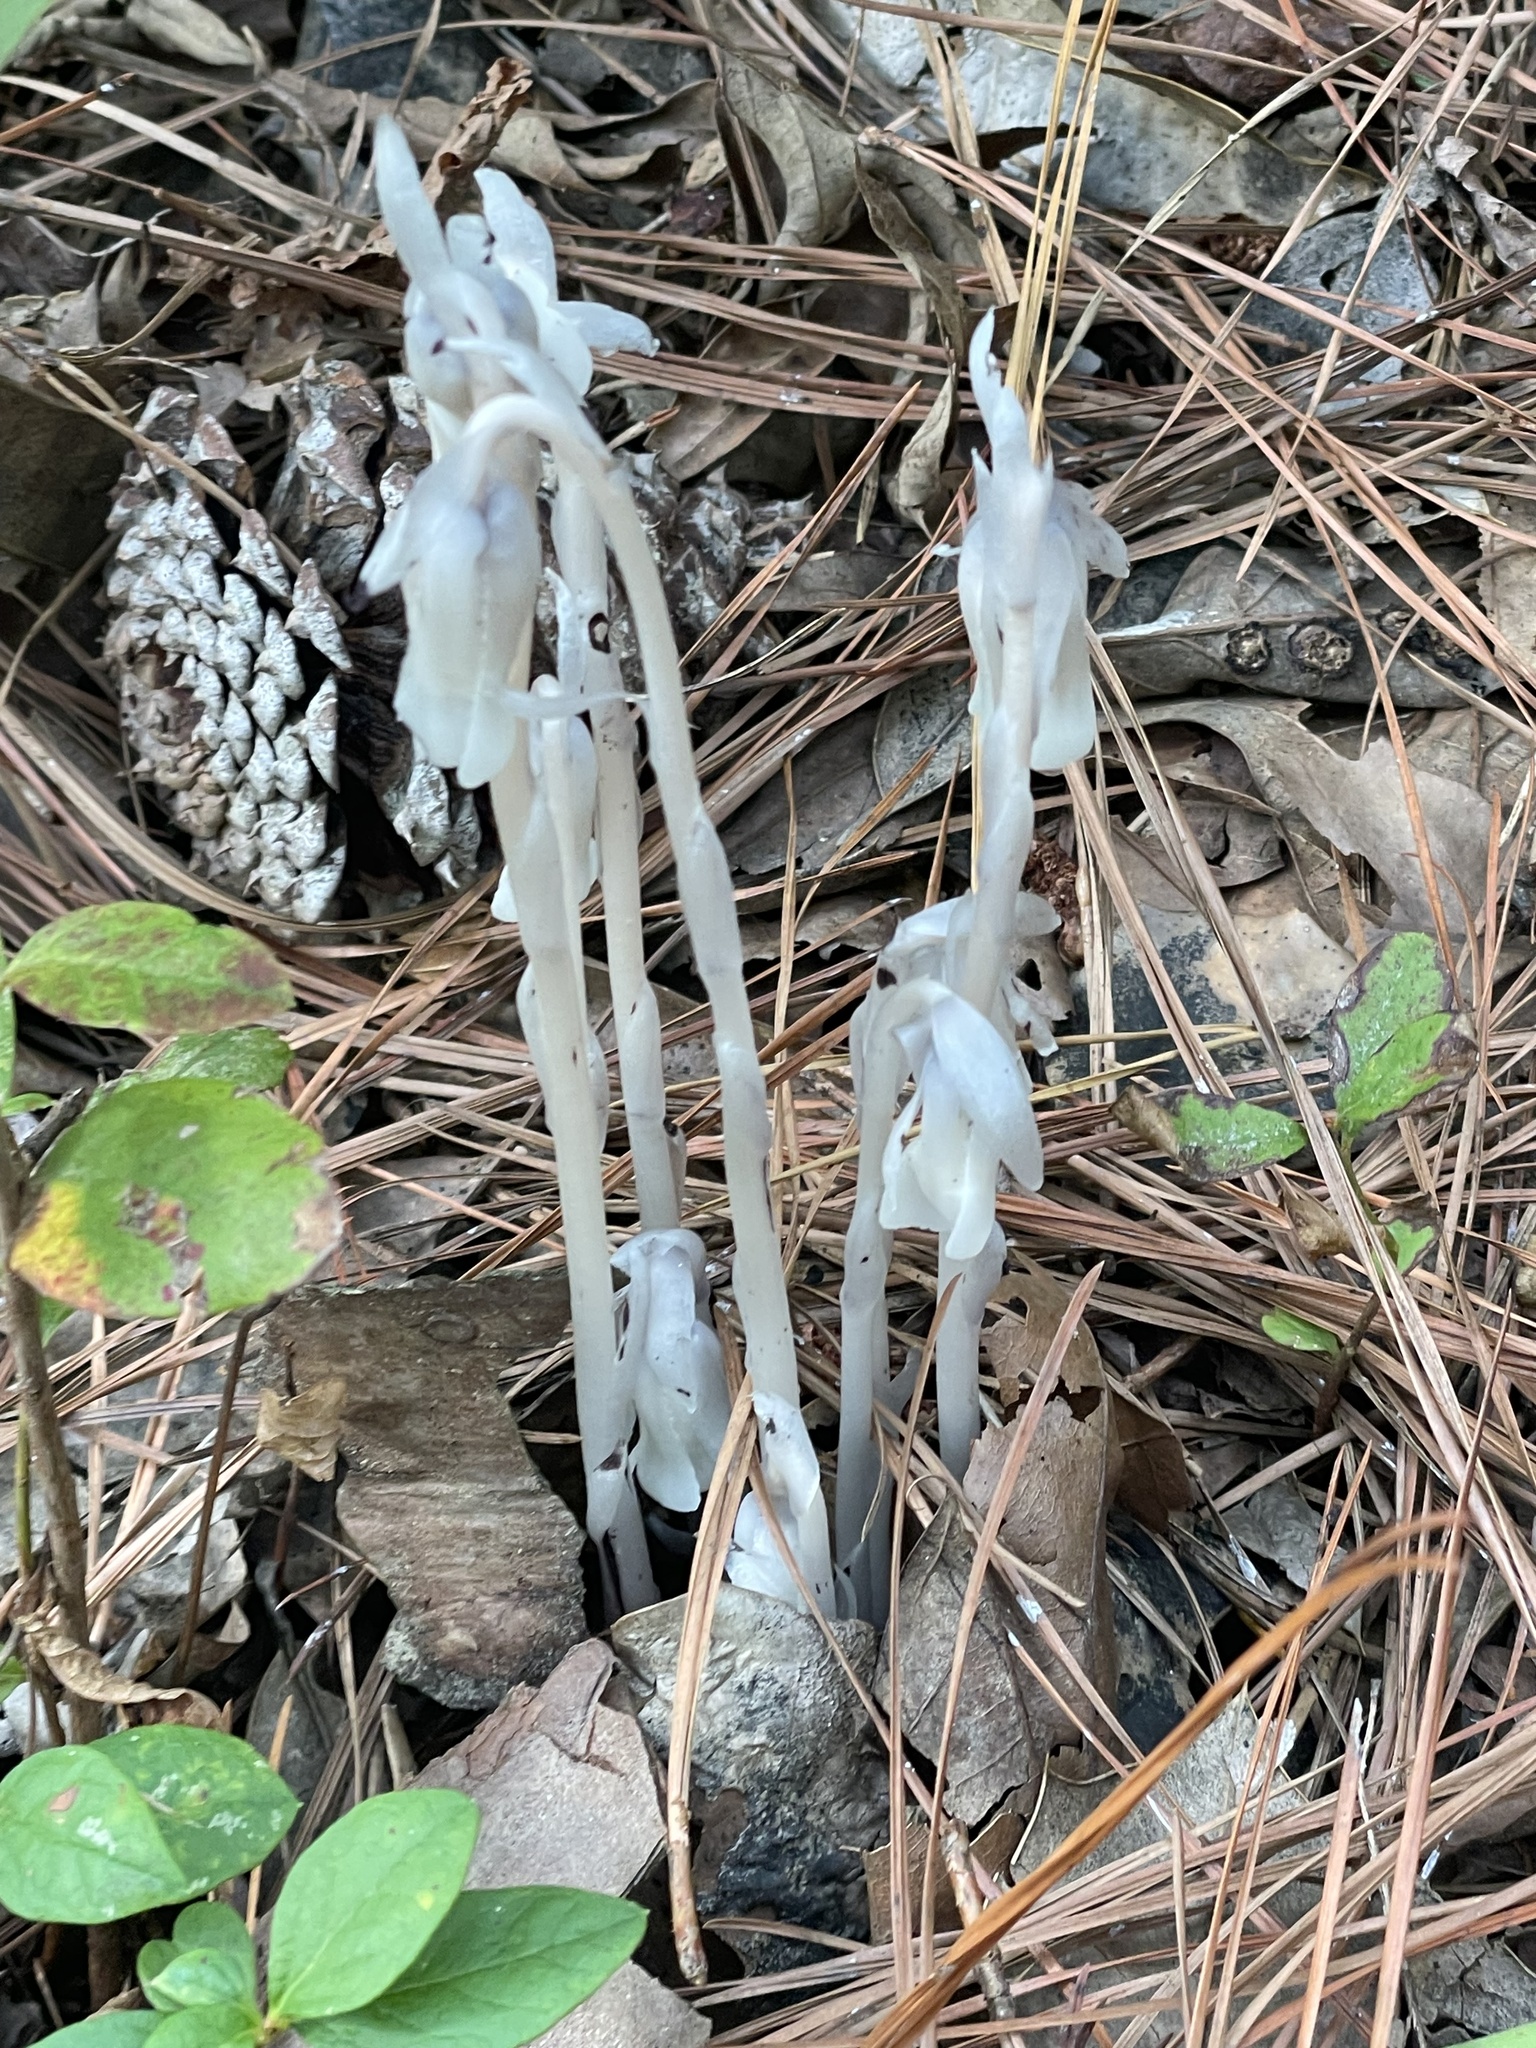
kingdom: Plantae
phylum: Tracheophyta
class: Magnoliopsida
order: Ericales
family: Ericaceae
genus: Monotropa
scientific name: Monotropa uniflora
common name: Convulsion root
